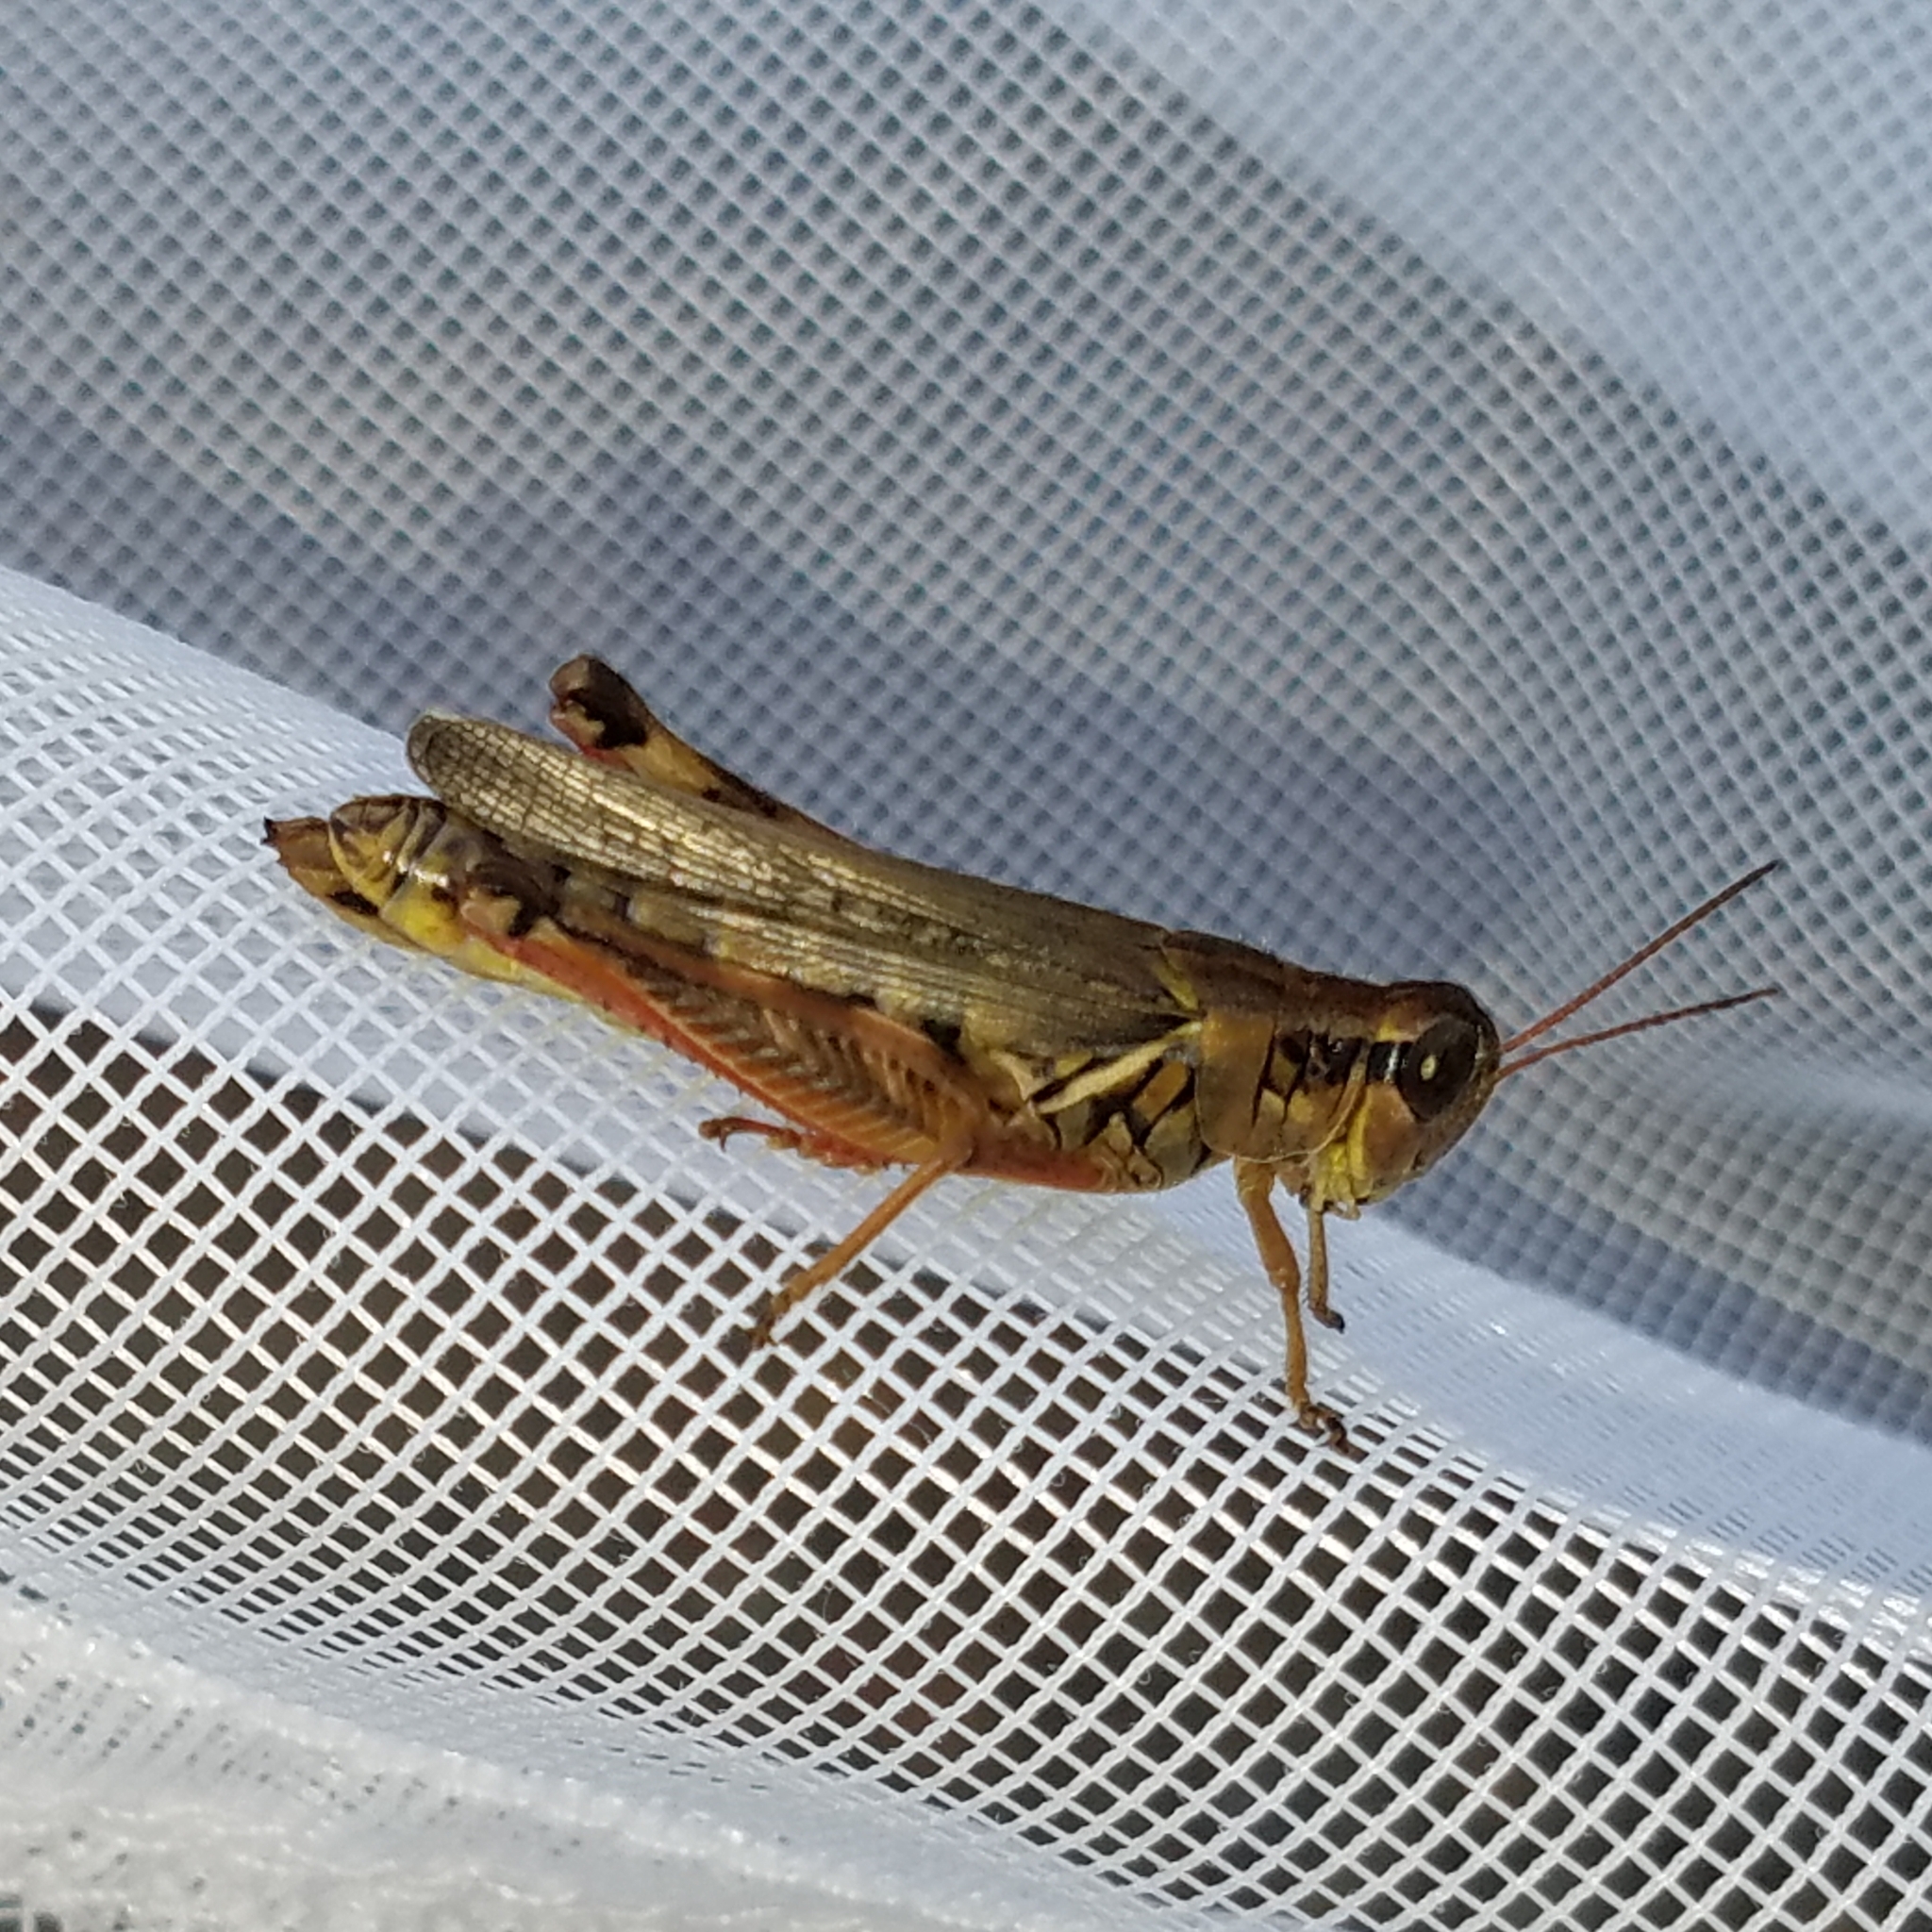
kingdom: Animalia
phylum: Arthropoda
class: Insecta
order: Orthoptera
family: Acrididae
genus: Melanoplus
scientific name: Melanoplus femurrubrum
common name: Red-legged grasshopper
